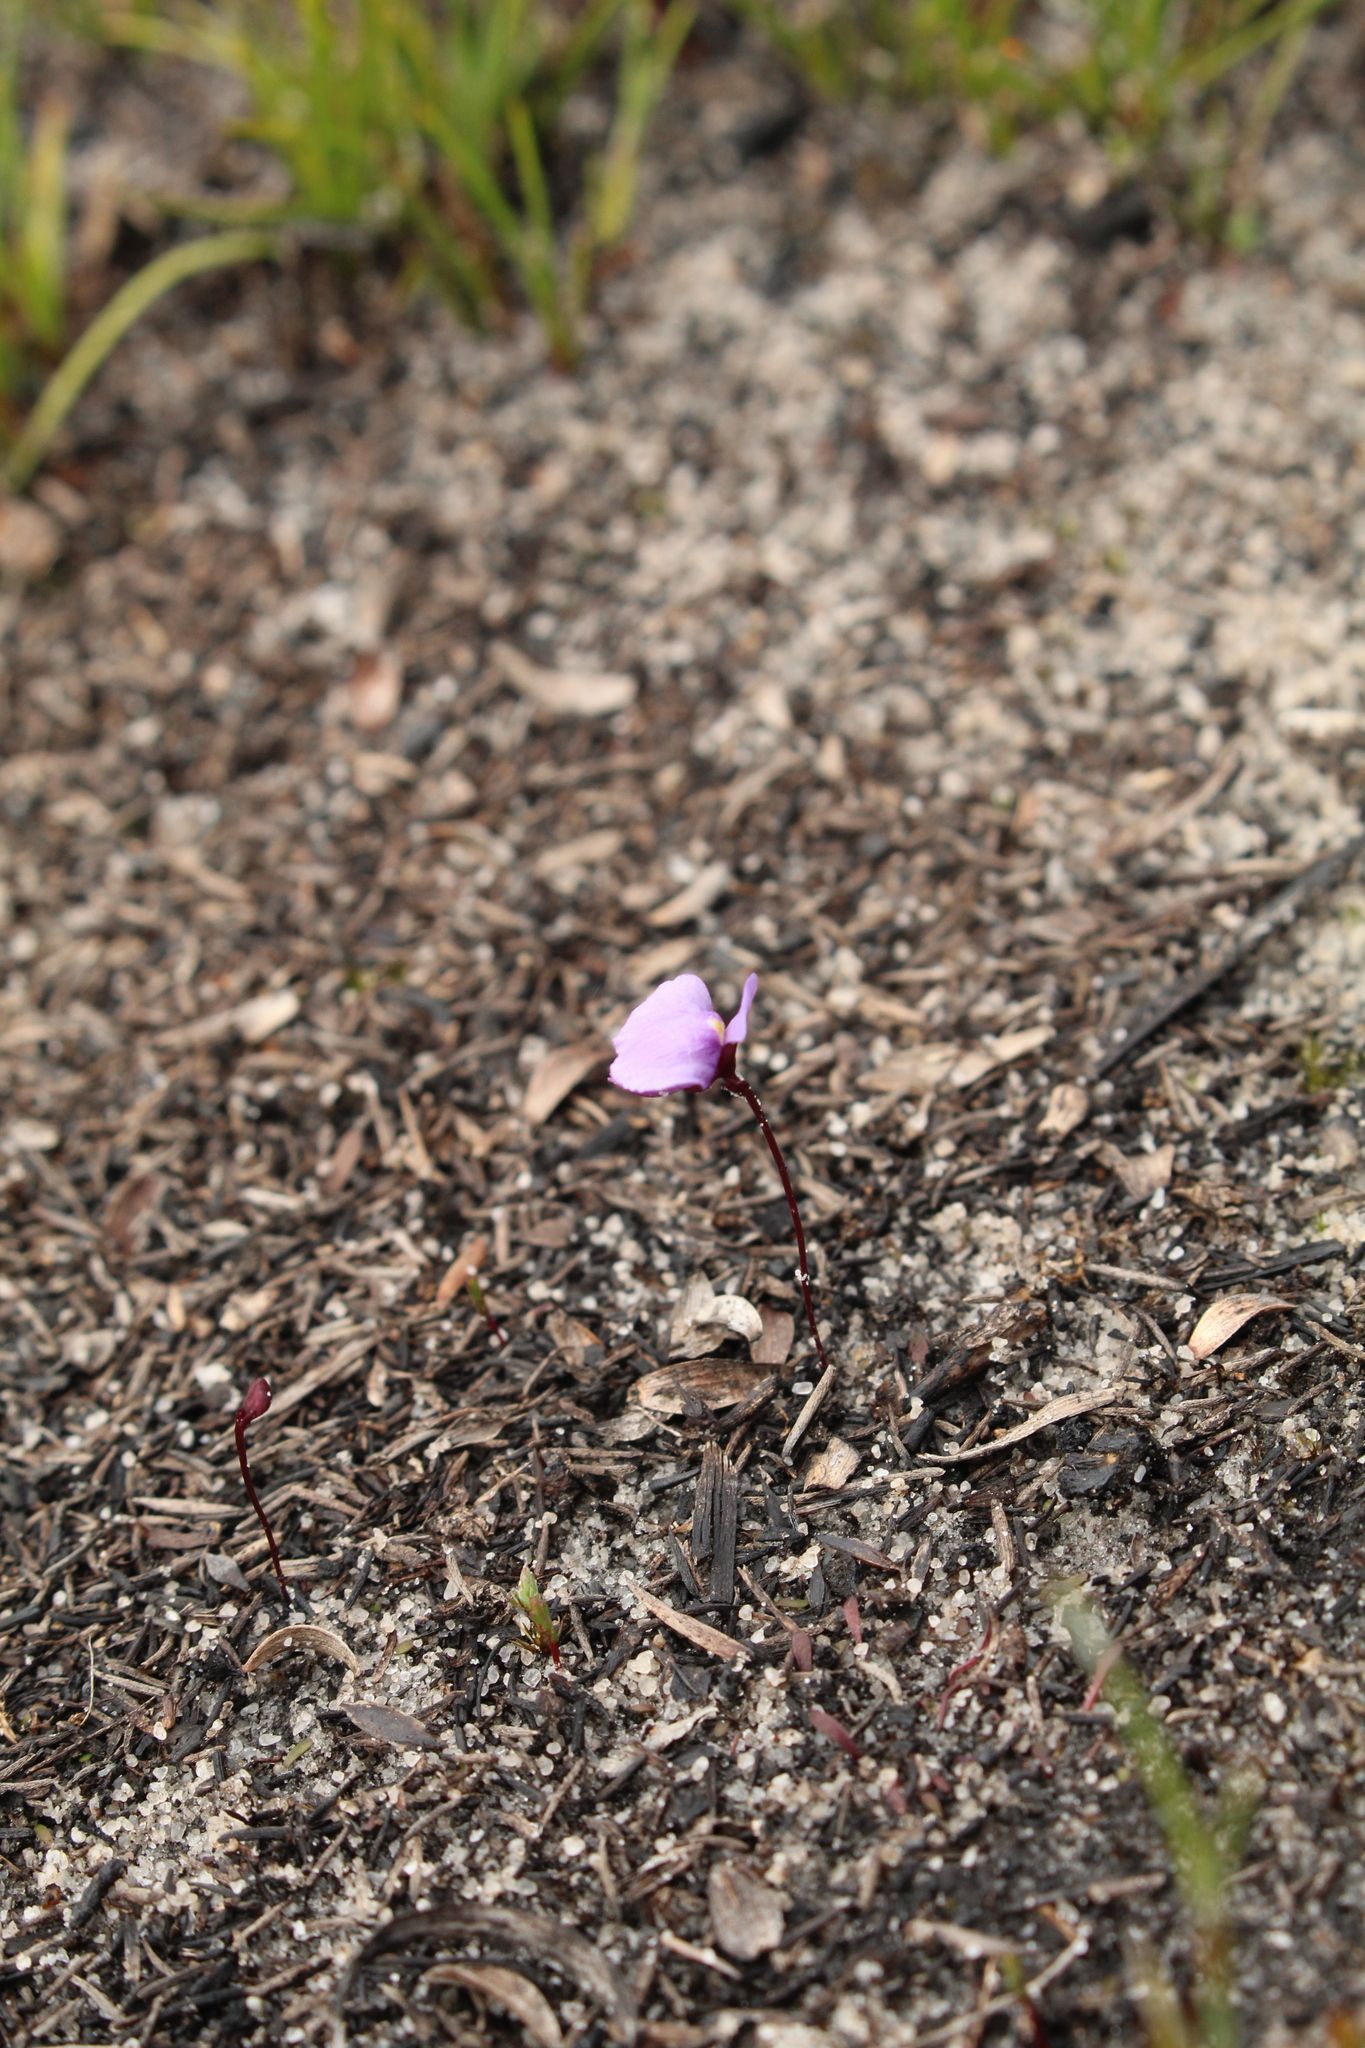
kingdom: Plantae
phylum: Tracheophyta
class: Magnoliopsida
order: Lamiales
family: Lentibulariaceae
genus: Utricularia
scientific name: Utricularia simplex
